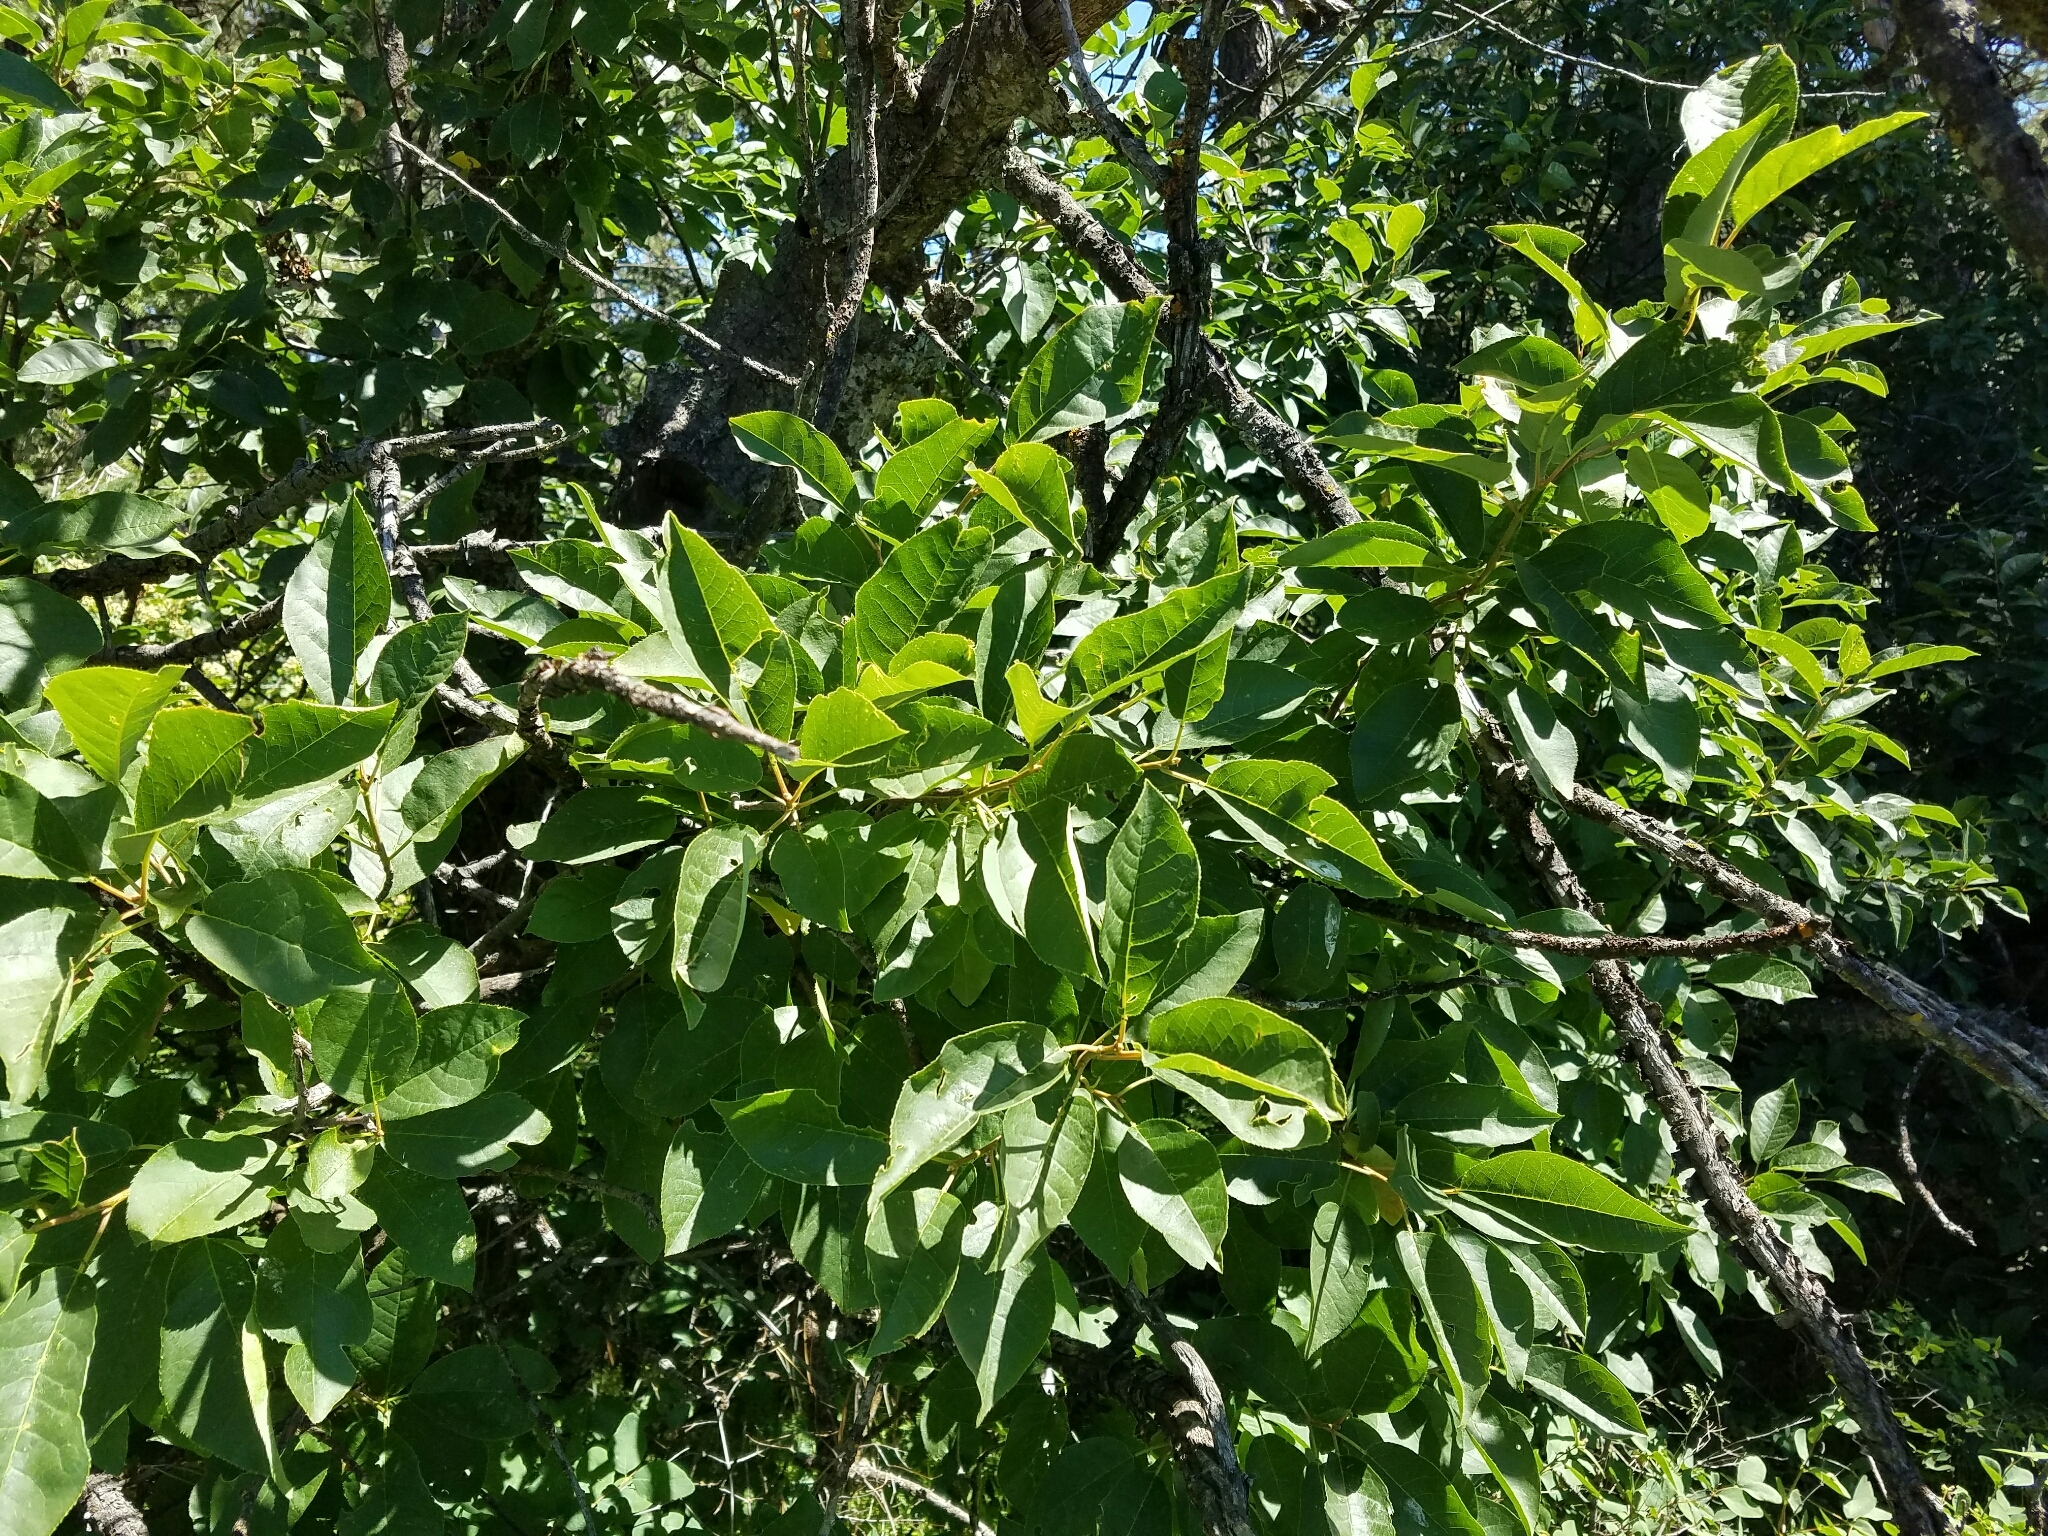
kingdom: Plantae
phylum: Tracheophyta
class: Magnoliopsida
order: Rosales
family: Rosaceae
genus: Prunus
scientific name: Prunus virginiana
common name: Chokecherry
